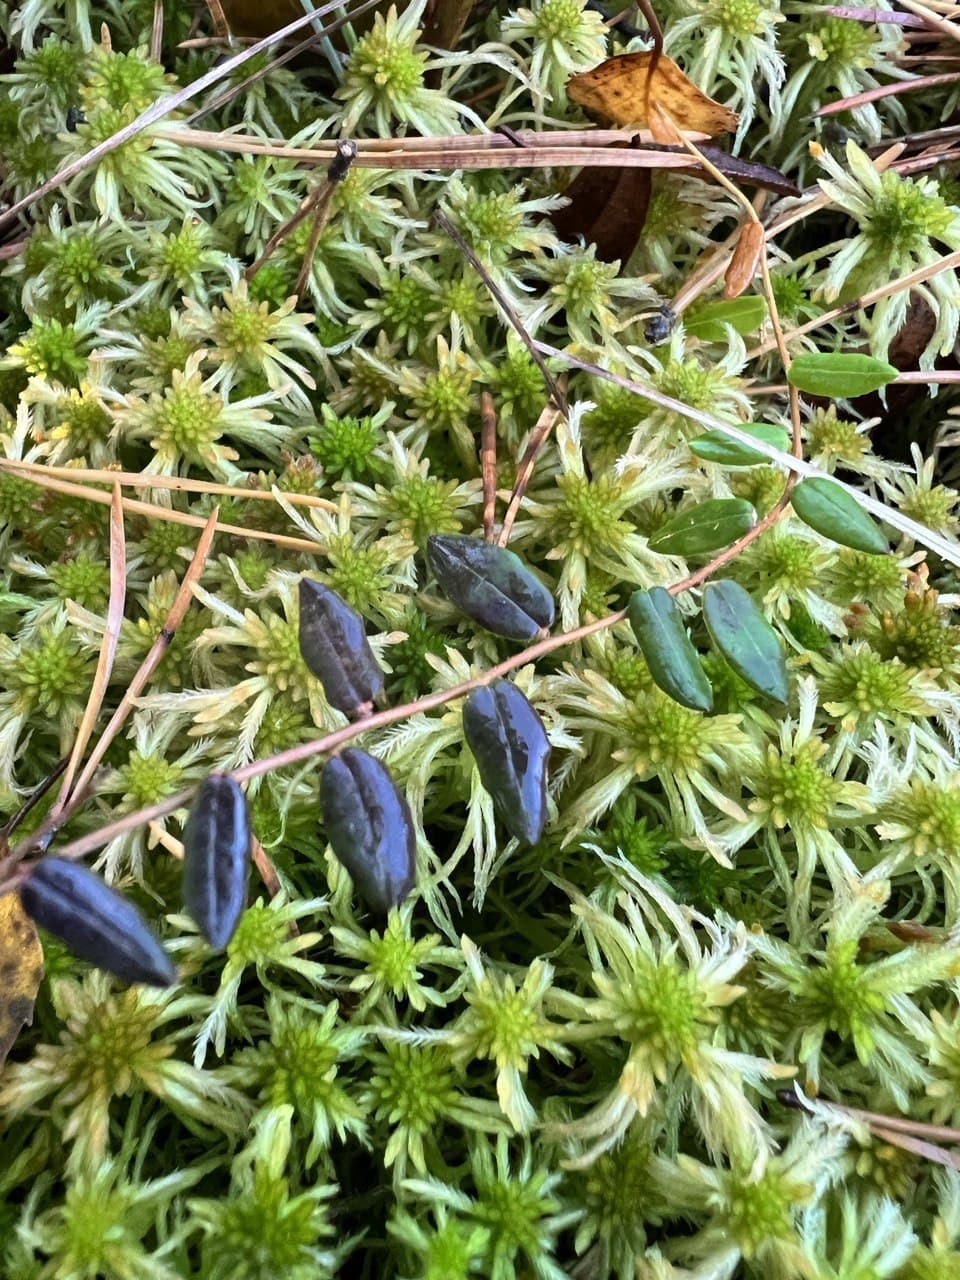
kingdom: Plantae
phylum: Tracheophyta
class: Magnoliopsida
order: Ericales
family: Ericaceae
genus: Vaccinium
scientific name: Vaccinium oxycoccos
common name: Cranberry
